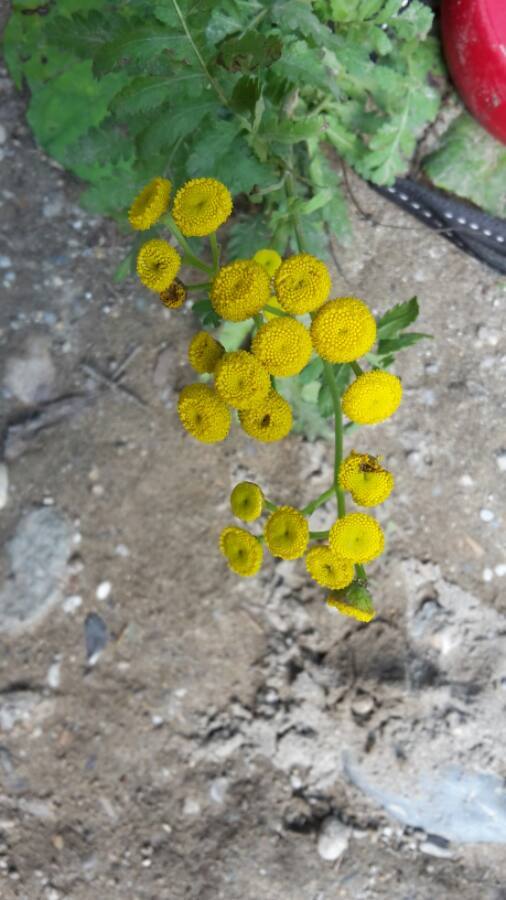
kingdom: Plantae
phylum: Tracheophyta
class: Magnoliopsida
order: Asterales
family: Asteraceae
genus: Tanacetum
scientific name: Tanacetum vulgare
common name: Common tansy
